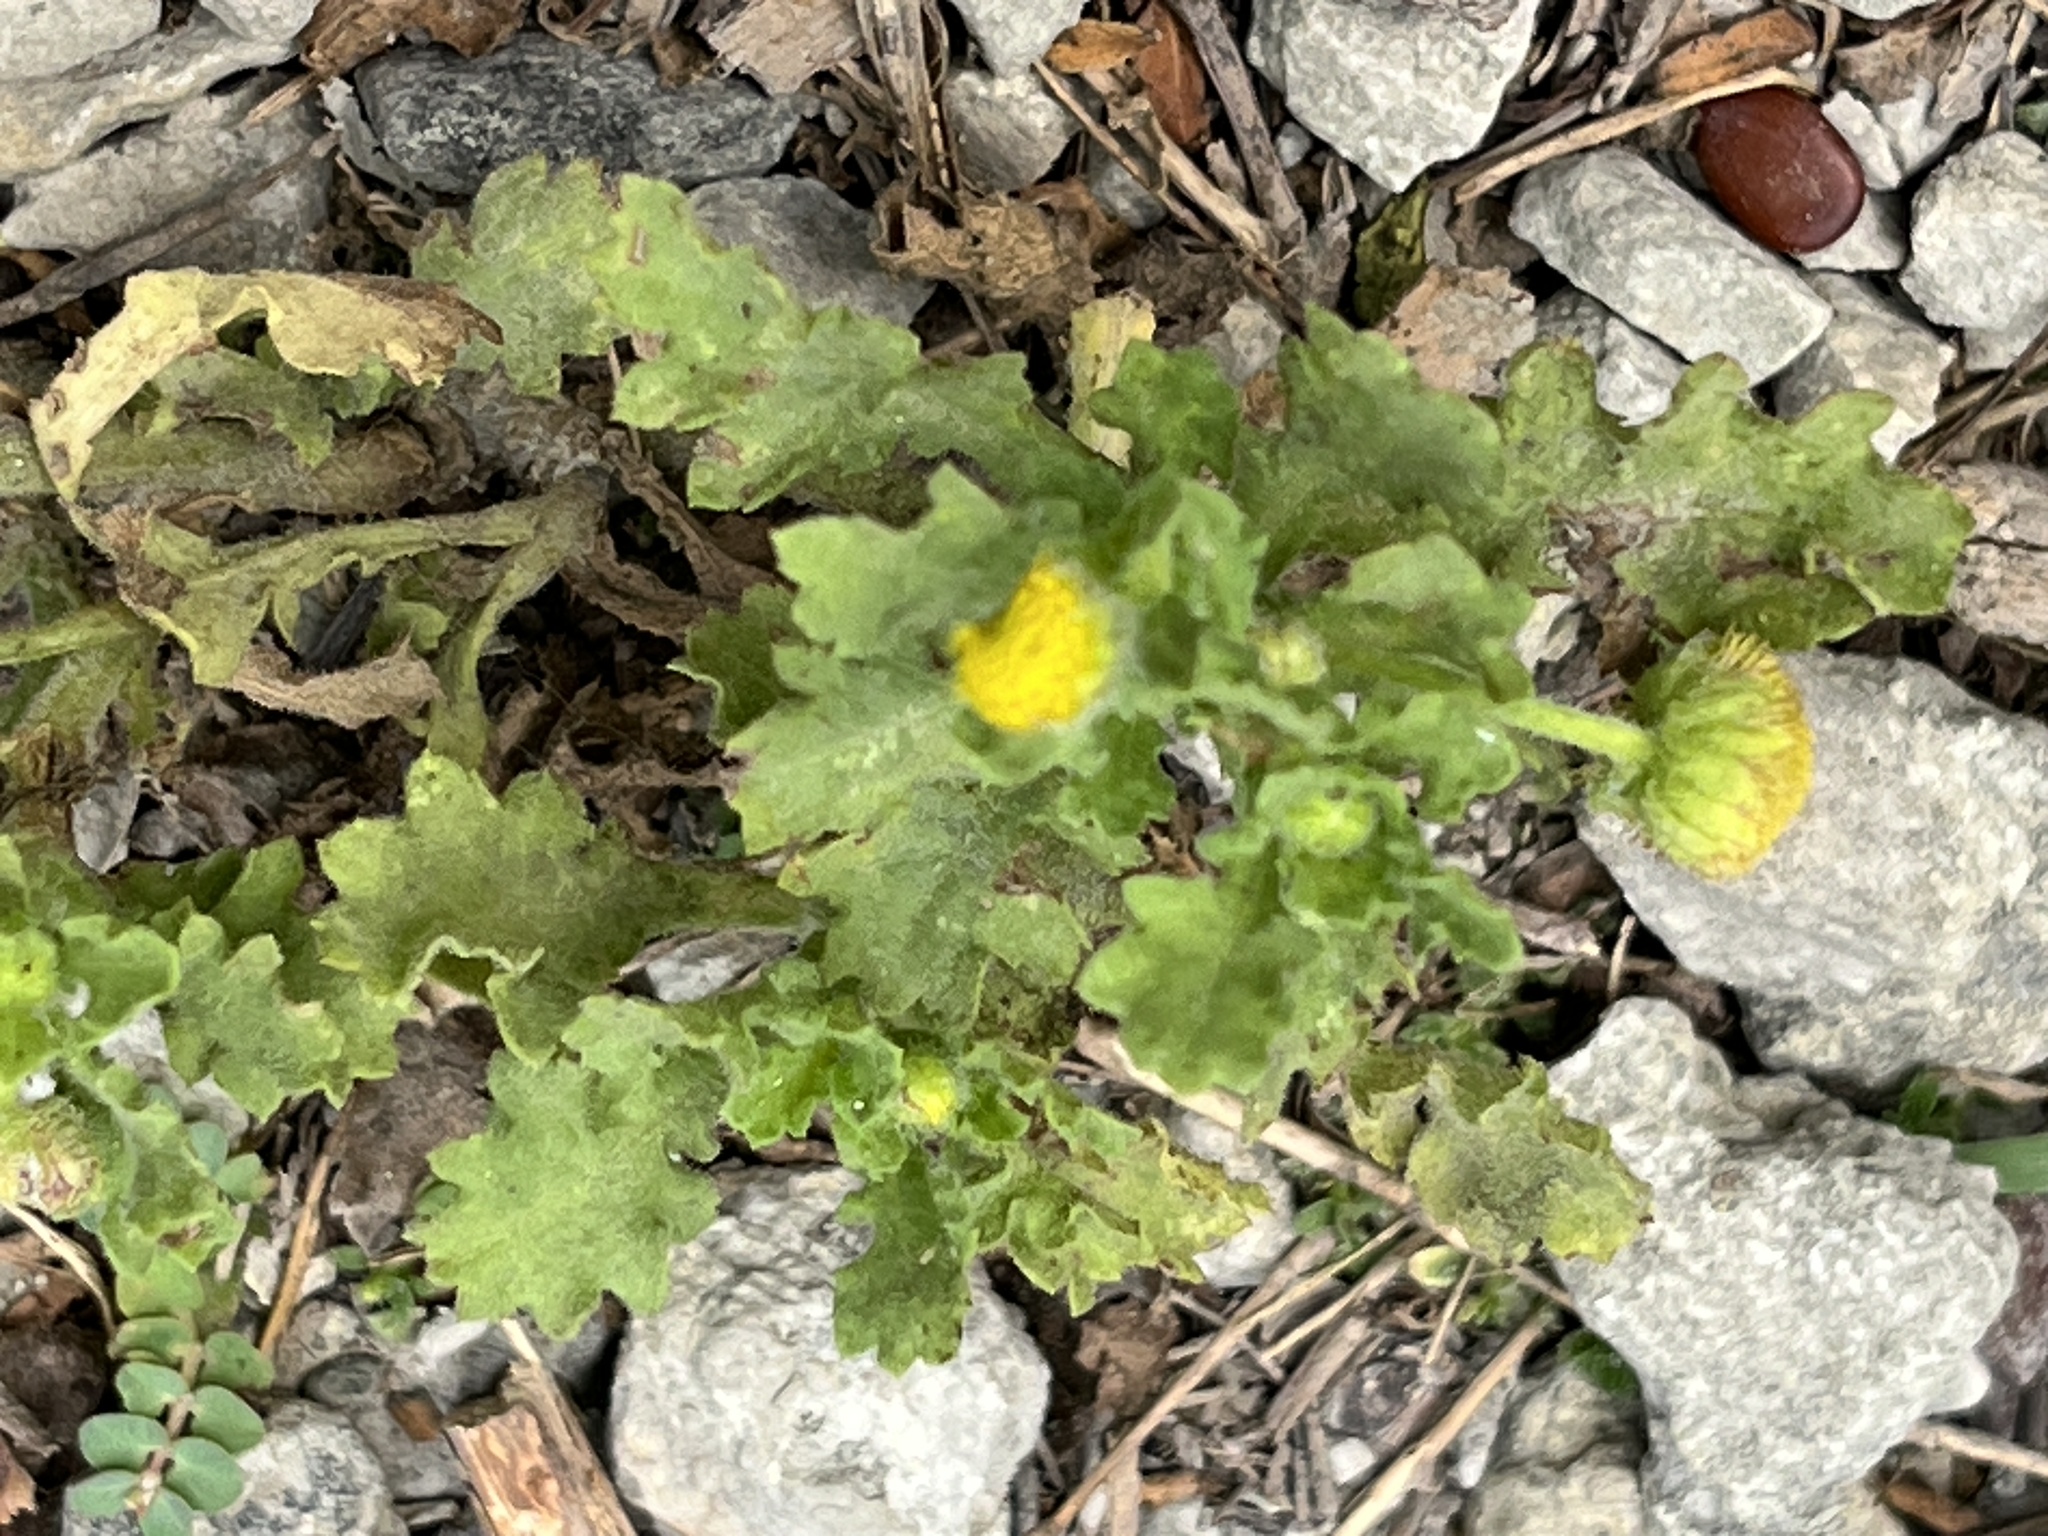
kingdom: Plantae
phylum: Tracheophyta
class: Magnoliopsida
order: Asterales
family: Asteraceae
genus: Grangea
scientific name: Grangea maderaspatana
